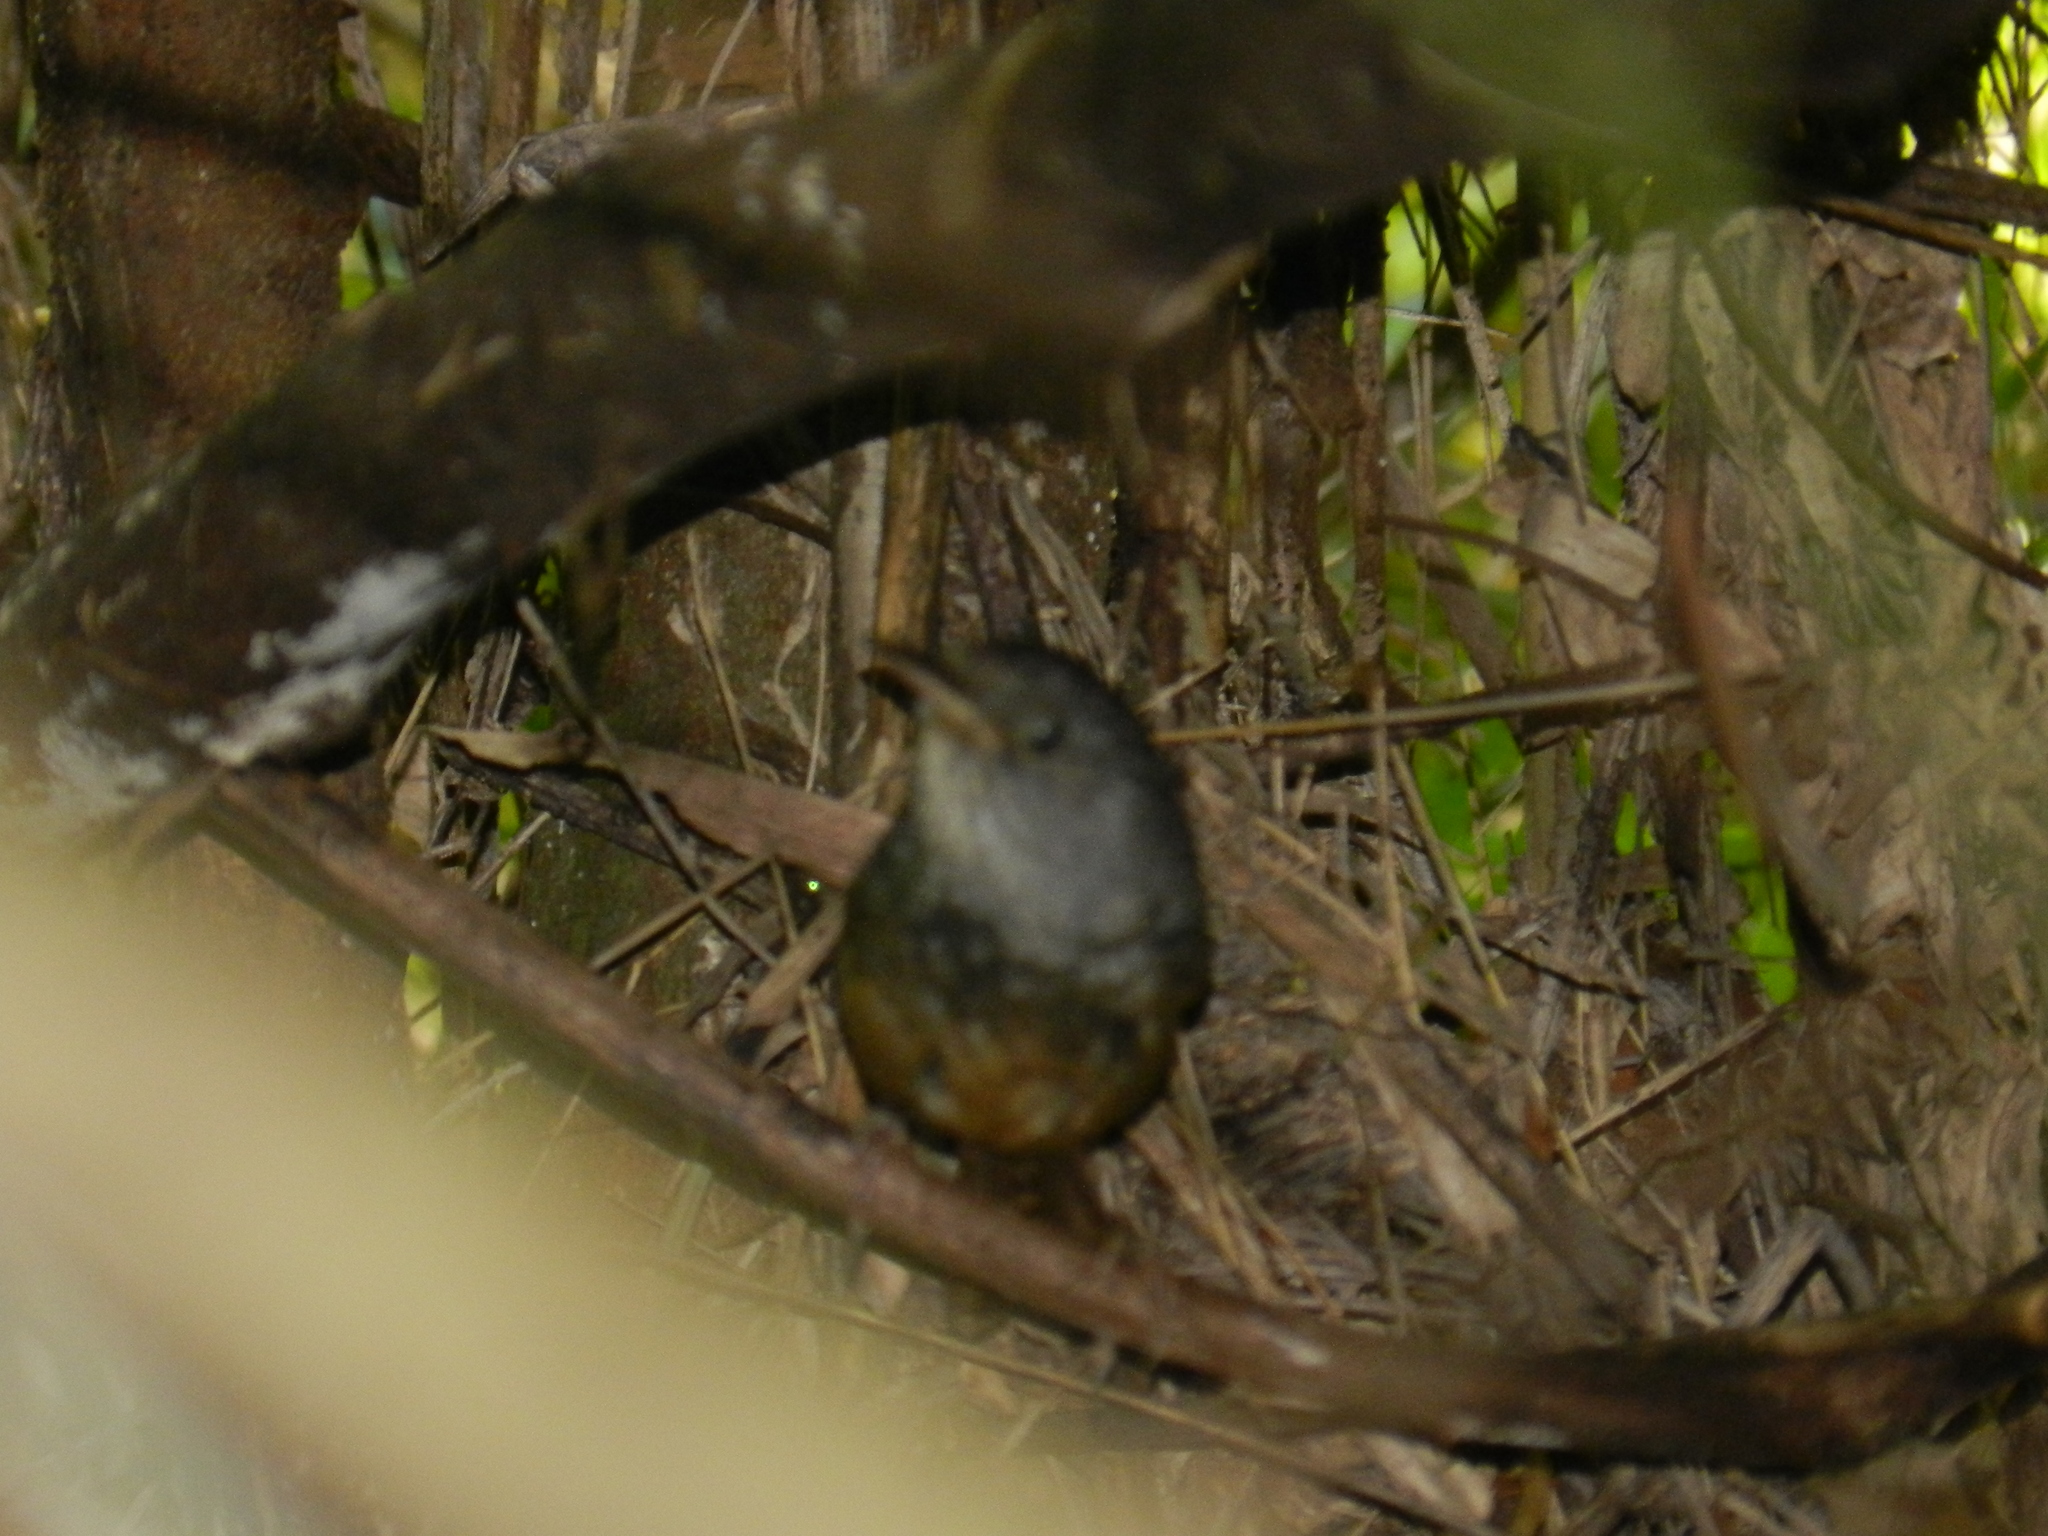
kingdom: Animalia
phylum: Chordata
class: Aves
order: Passeriformes
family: Rhinocryptidae
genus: Psilorhamphus
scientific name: Psilorhamphus guttatus
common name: Spotted bamboowren
